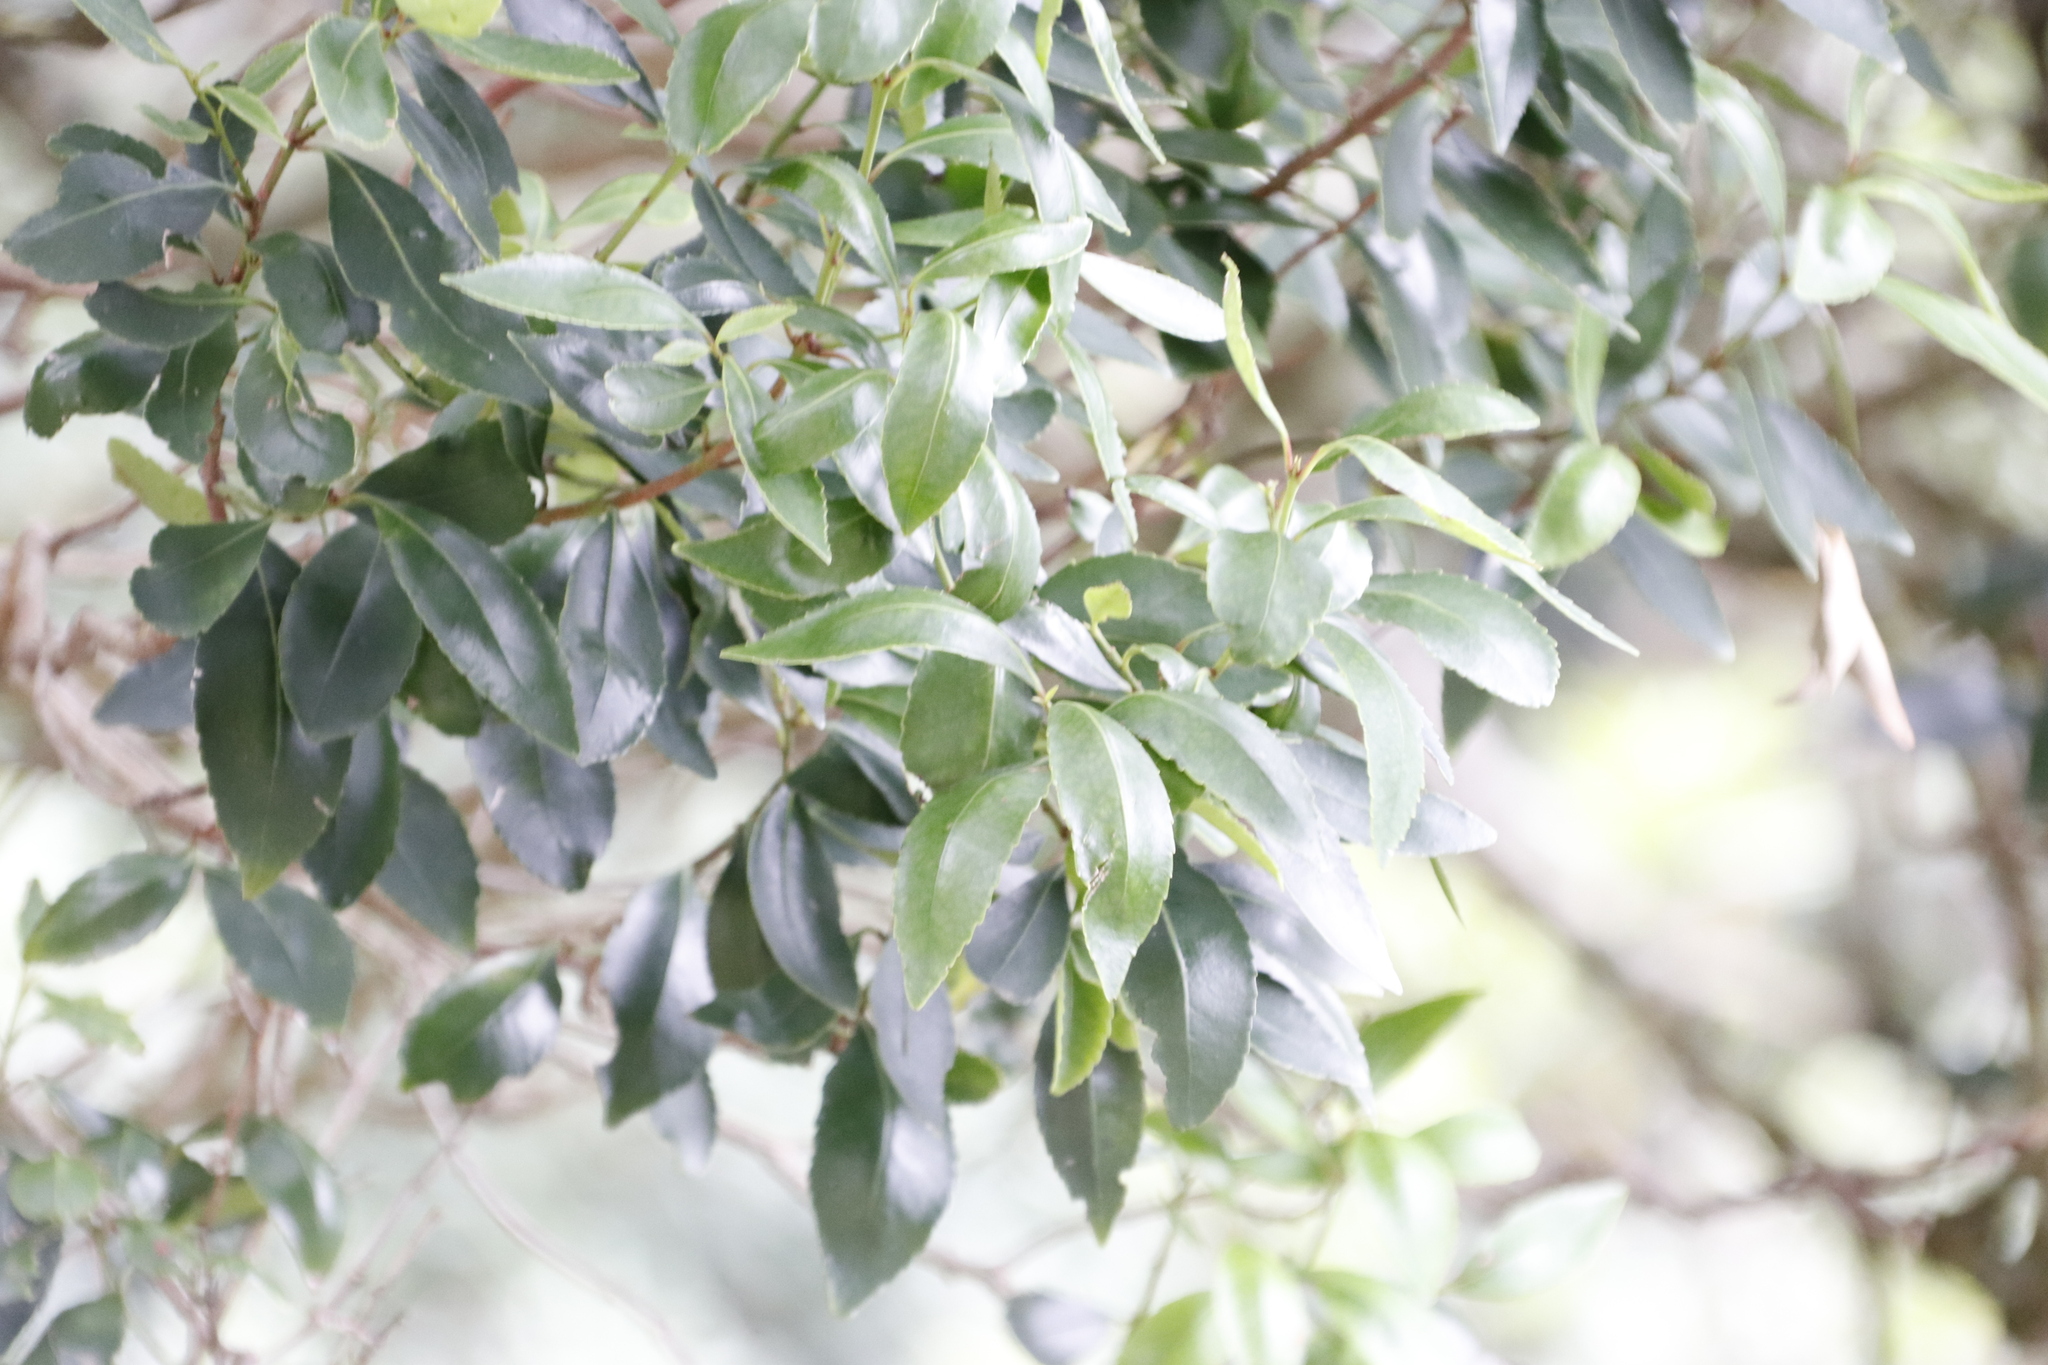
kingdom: Plantae
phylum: Tracheophyta
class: Magnoliopsida
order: Celastrales
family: Celastraceae
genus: Elaeodendron
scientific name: Elaeodendron schinoides
